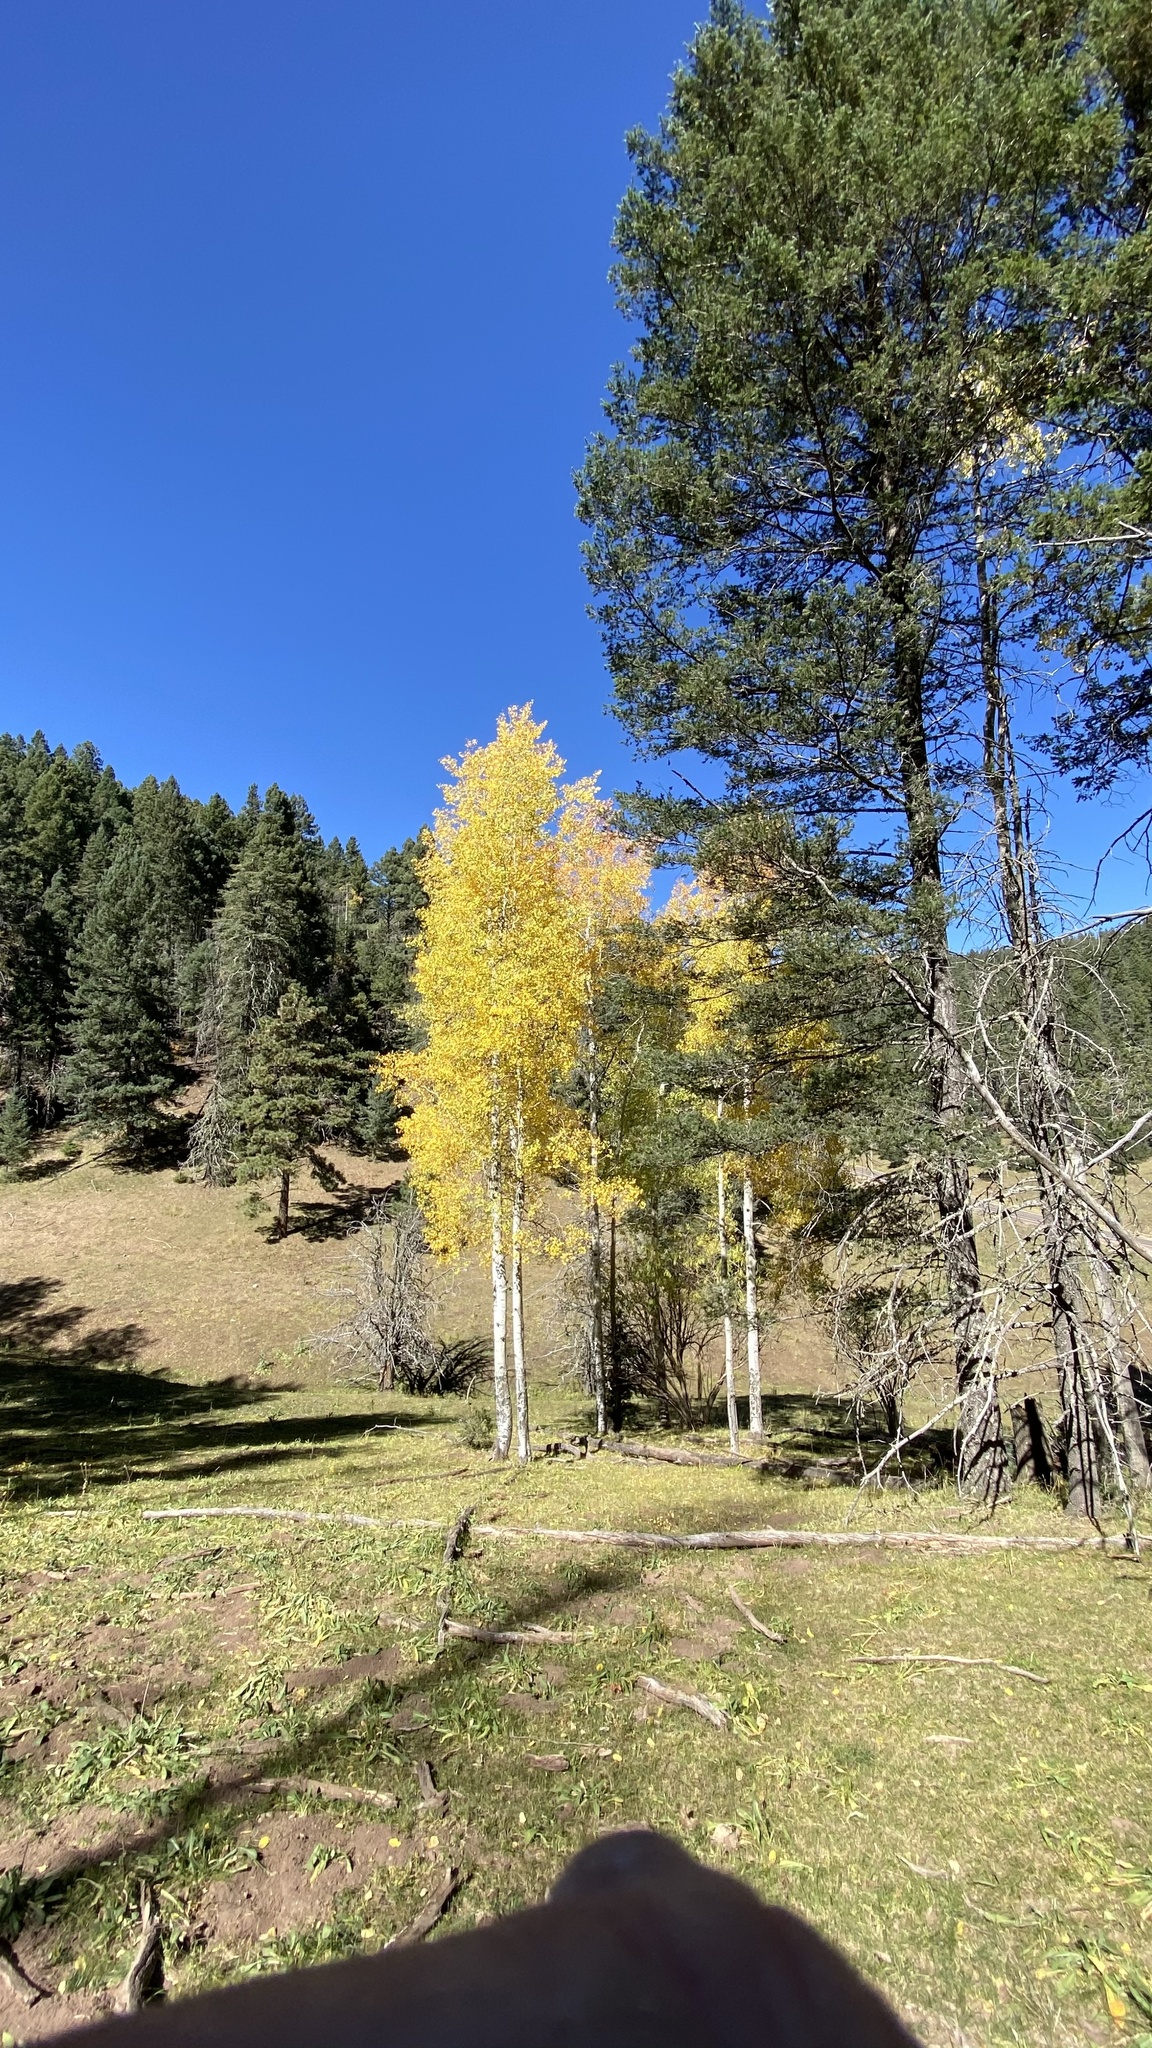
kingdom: Plantae
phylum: Tracheophyta
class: Magnoliopsida
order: Malpighiales
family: Salicaceae
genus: Populus
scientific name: Populus tremuloides
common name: Quaking aspen
